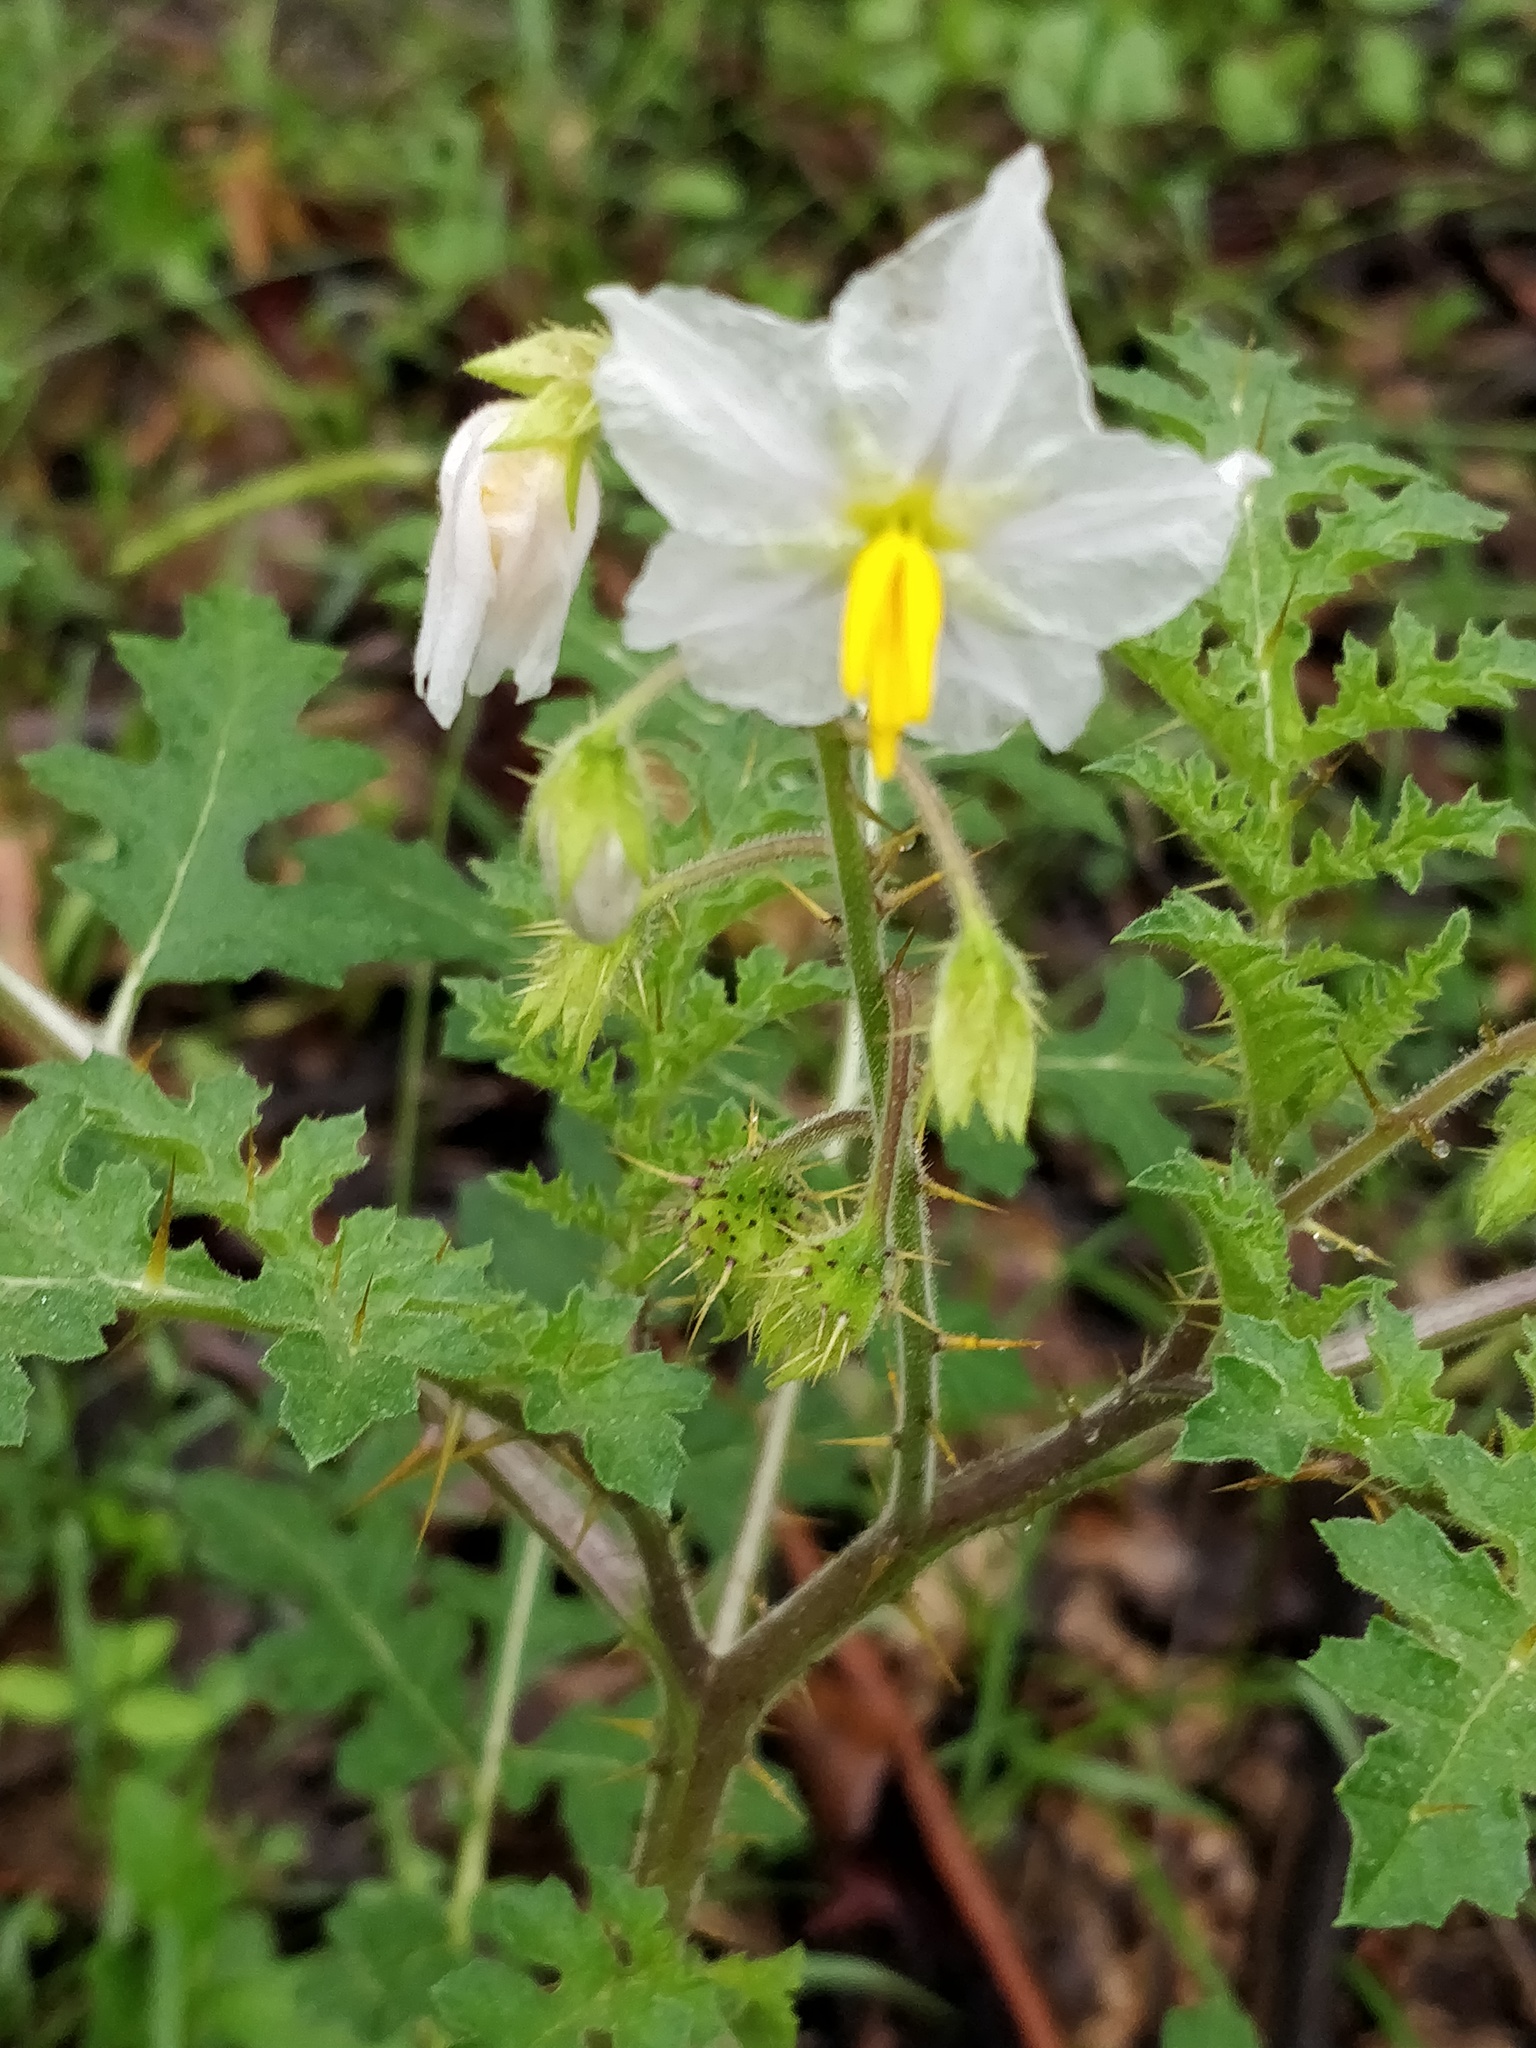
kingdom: Plantae
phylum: Tracheophyta
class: Magnoliopsida
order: Solanales
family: Solanaceae
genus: Solanum
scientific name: Solanum sisymbriifolium
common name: Red buffalo-bur
